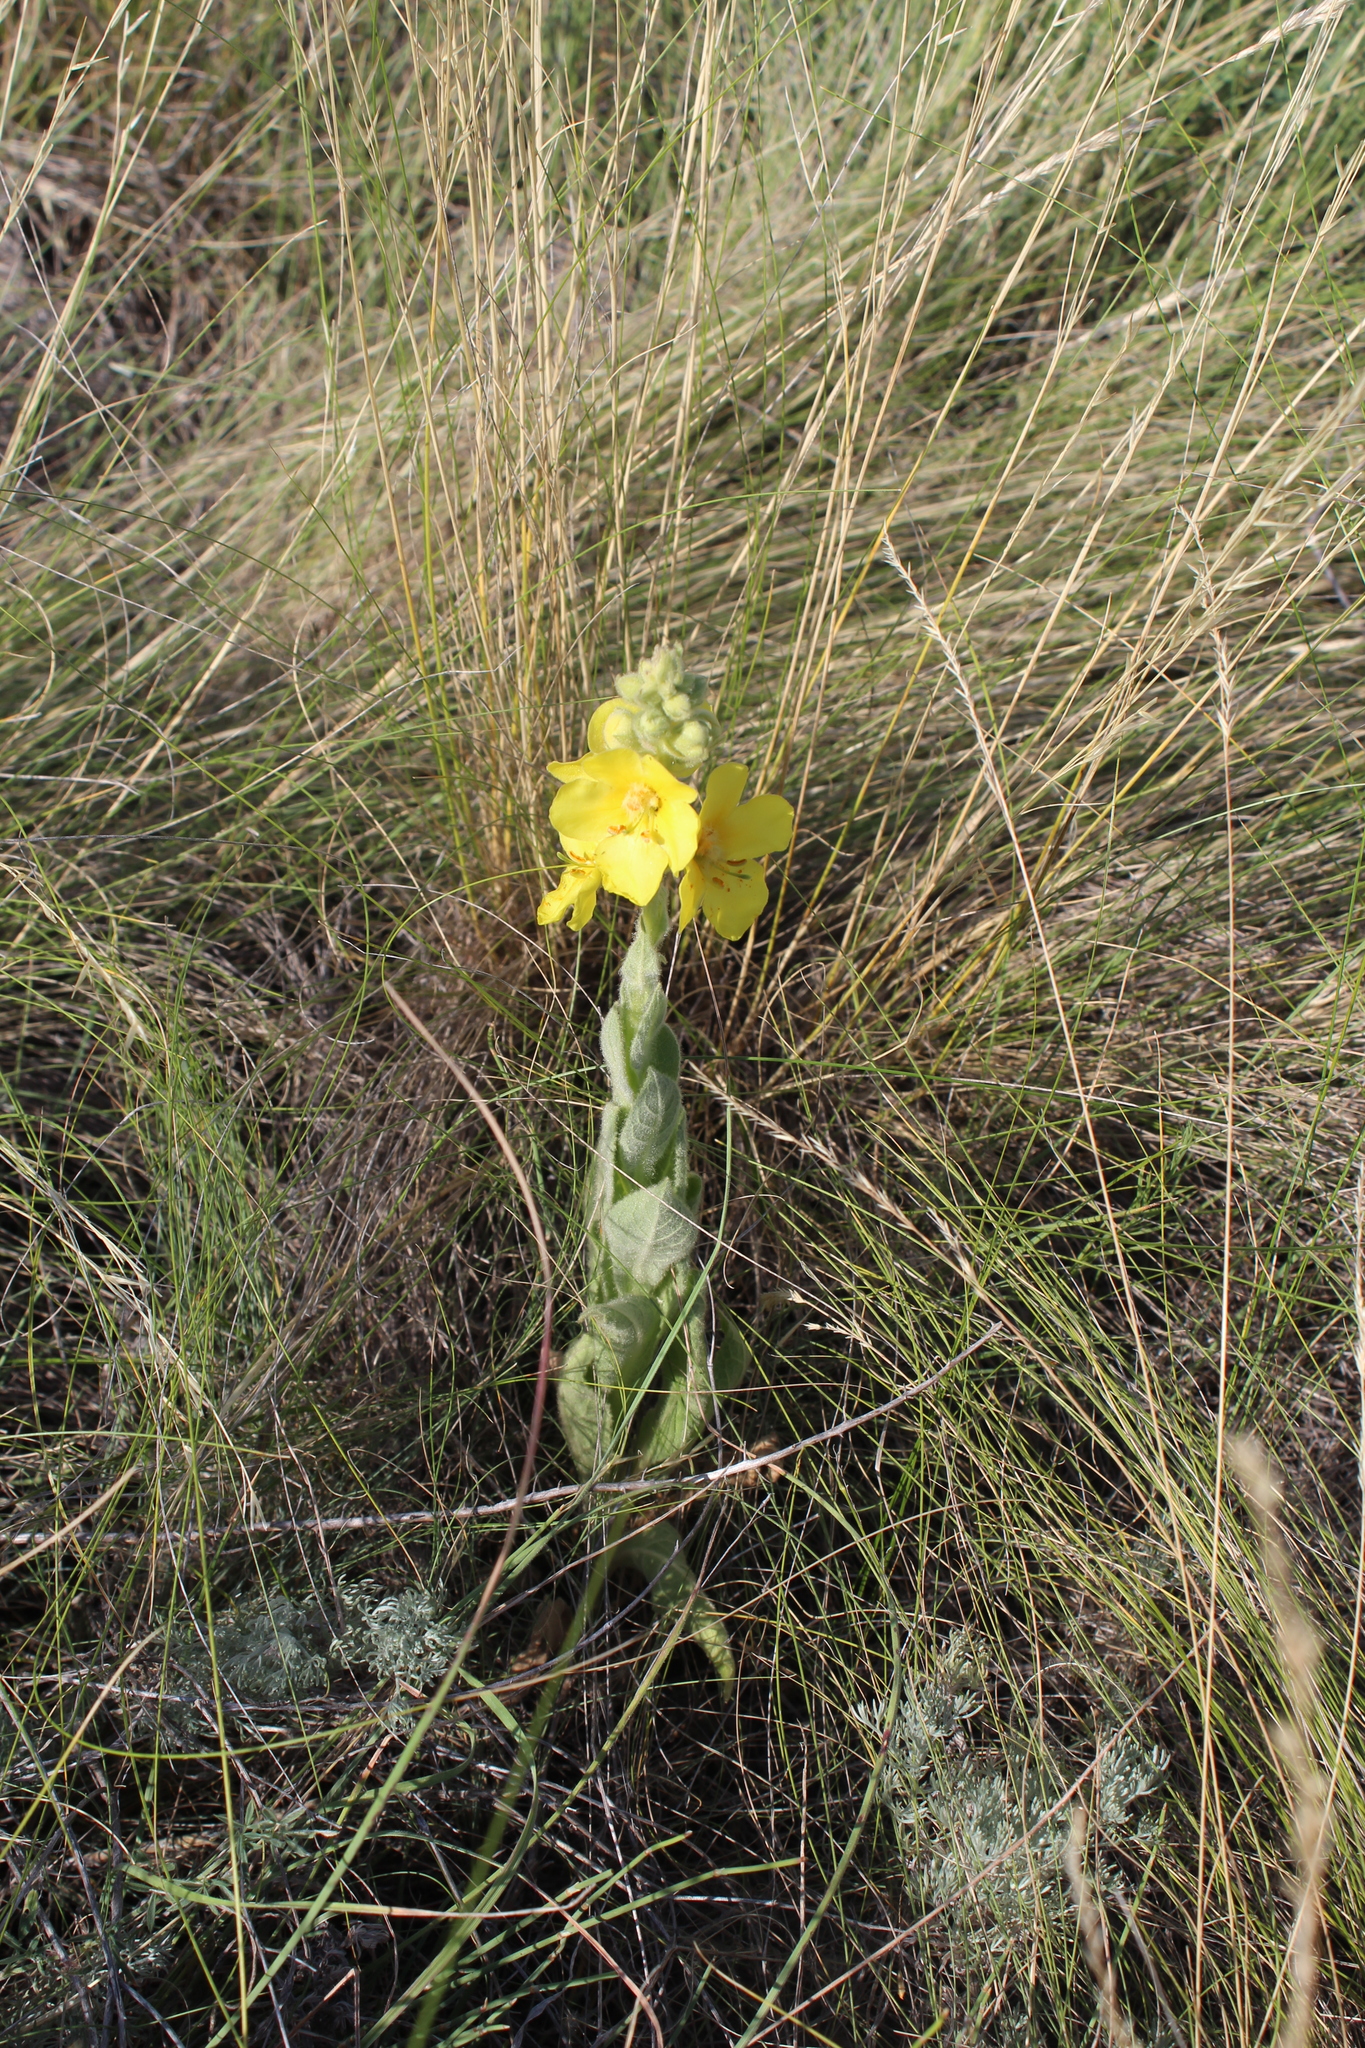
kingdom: Plantae
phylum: Tracheophyta
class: Magnoliopsida
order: Lamiales
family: Scrophulariaceae
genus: Verbascum
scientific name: Verbascum densiflorum
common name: Dense-flowered mullein
